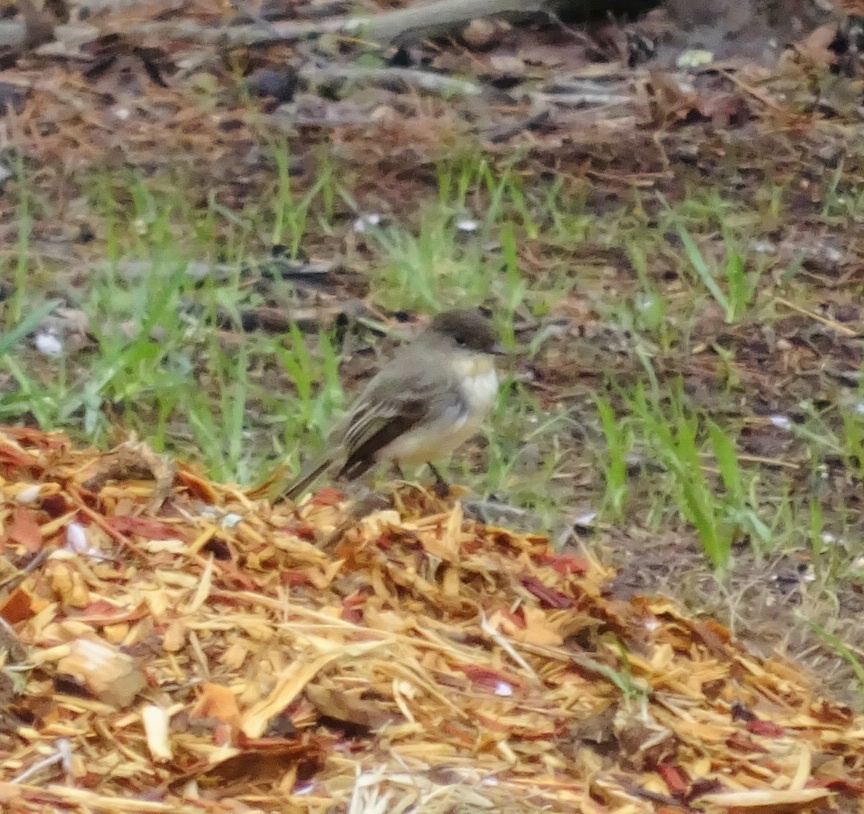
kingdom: Animalia
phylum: Chordata
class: Aves
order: Passeriformes
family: Tyrannidae
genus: Sayornis
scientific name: Sayornis phoebe
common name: Eastern phoebe
